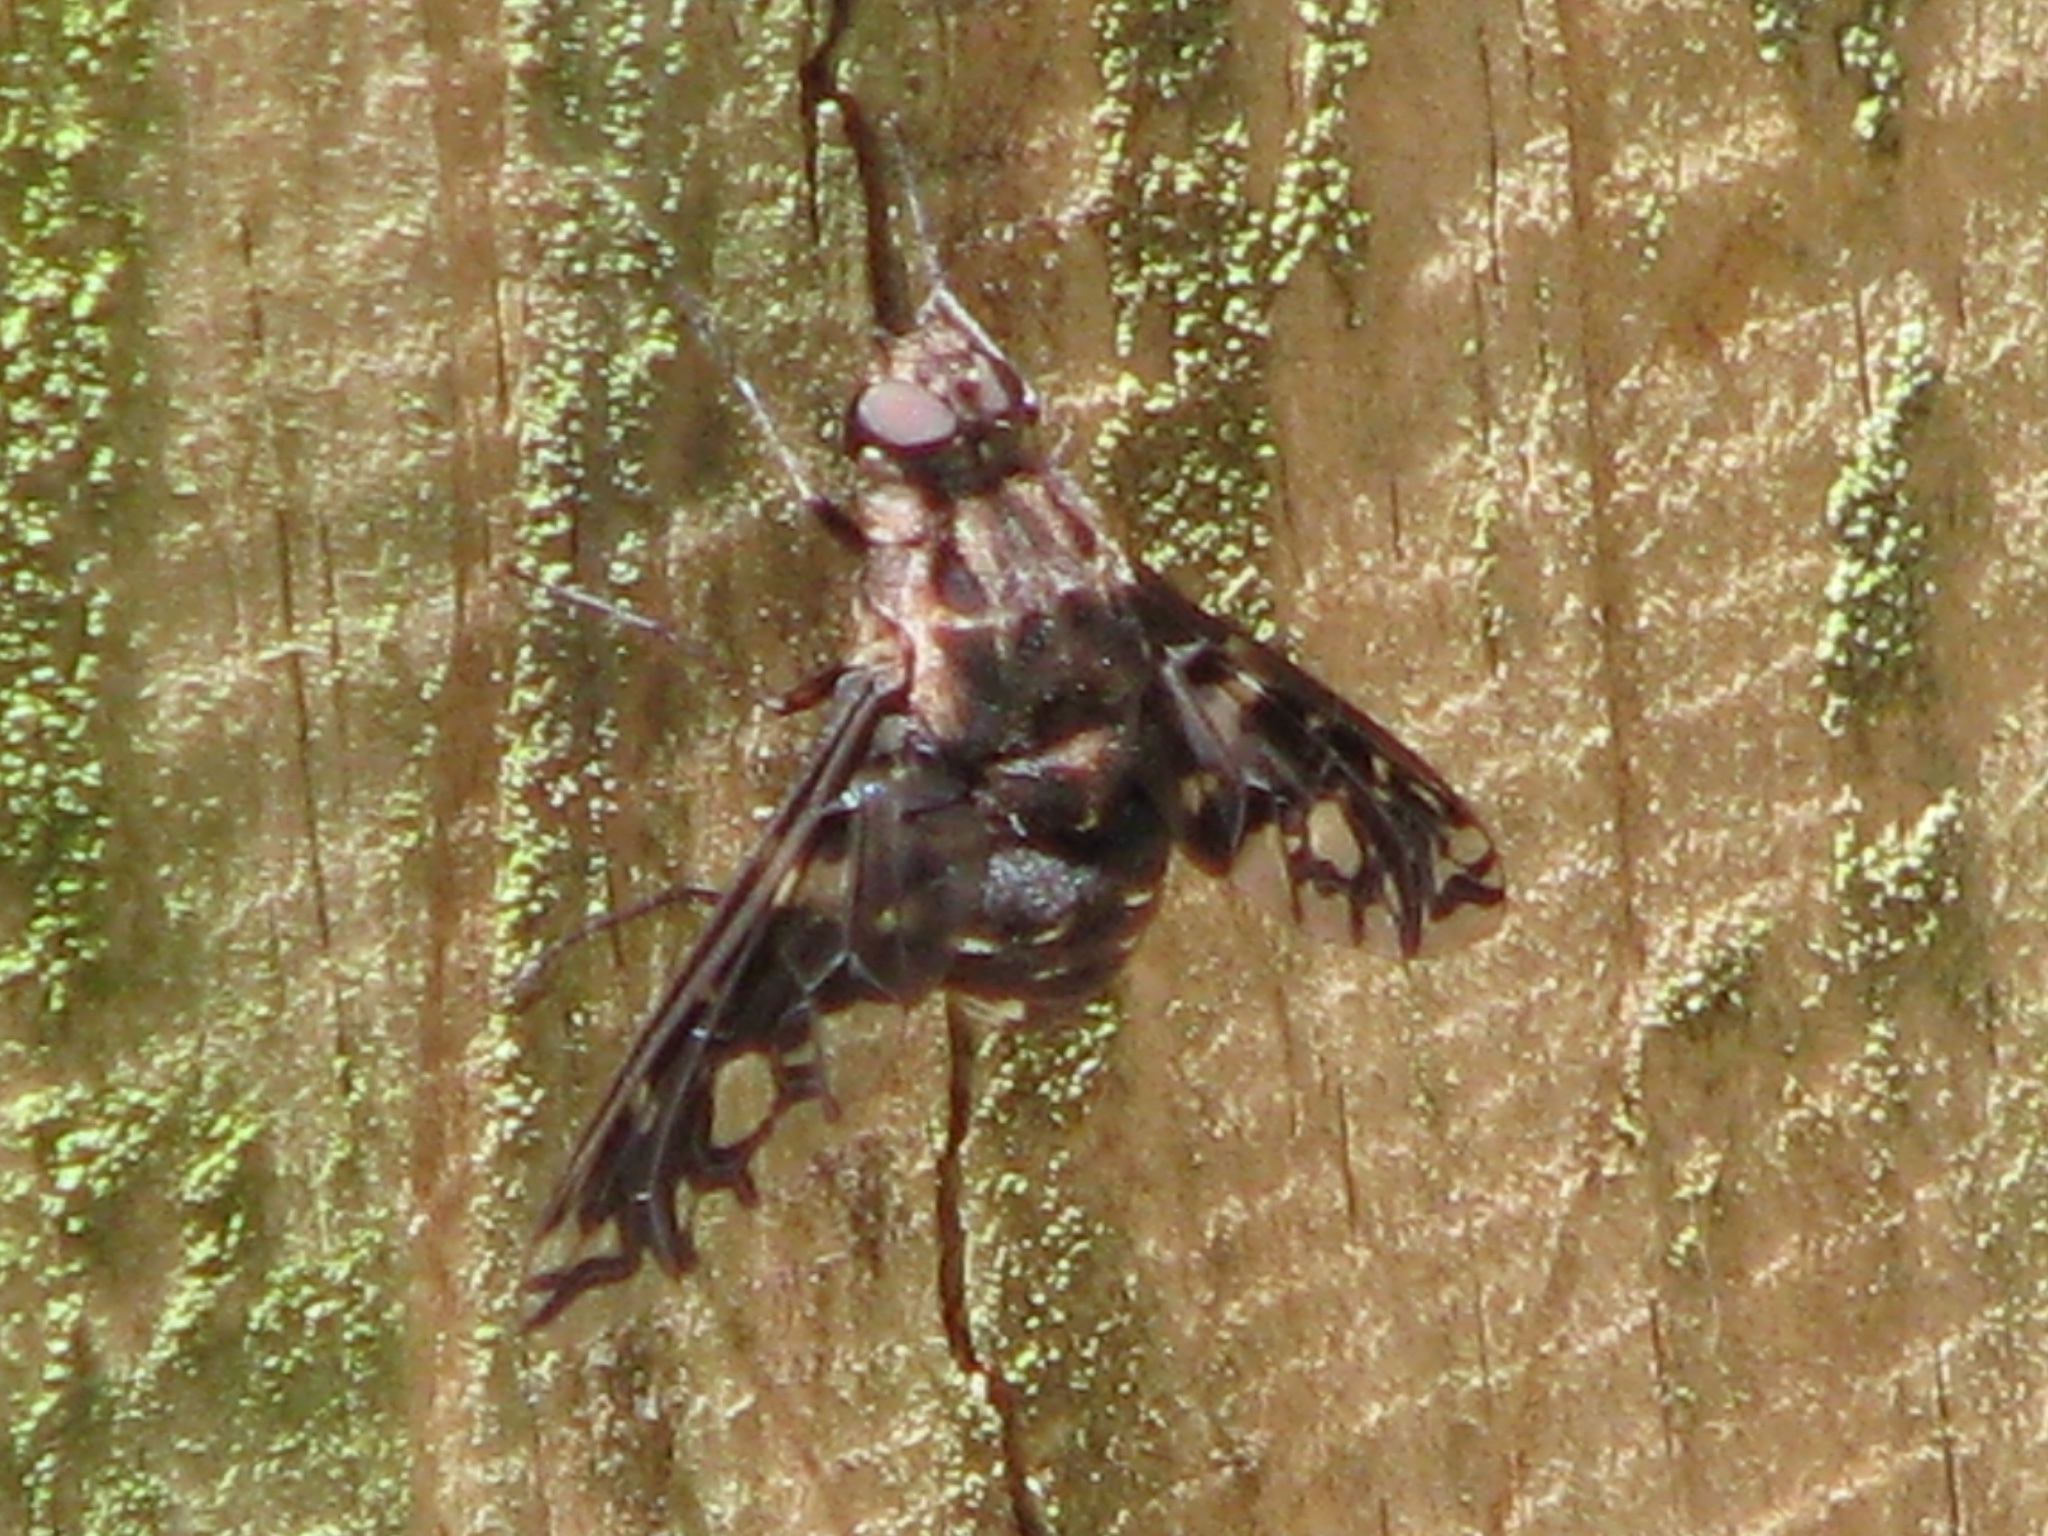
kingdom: Animalia
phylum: Arthropoda
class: Insecta
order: Diptera
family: Bombyliidae
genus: Xenox
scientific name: Xenox tigrinus
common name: Tiger bee fly
